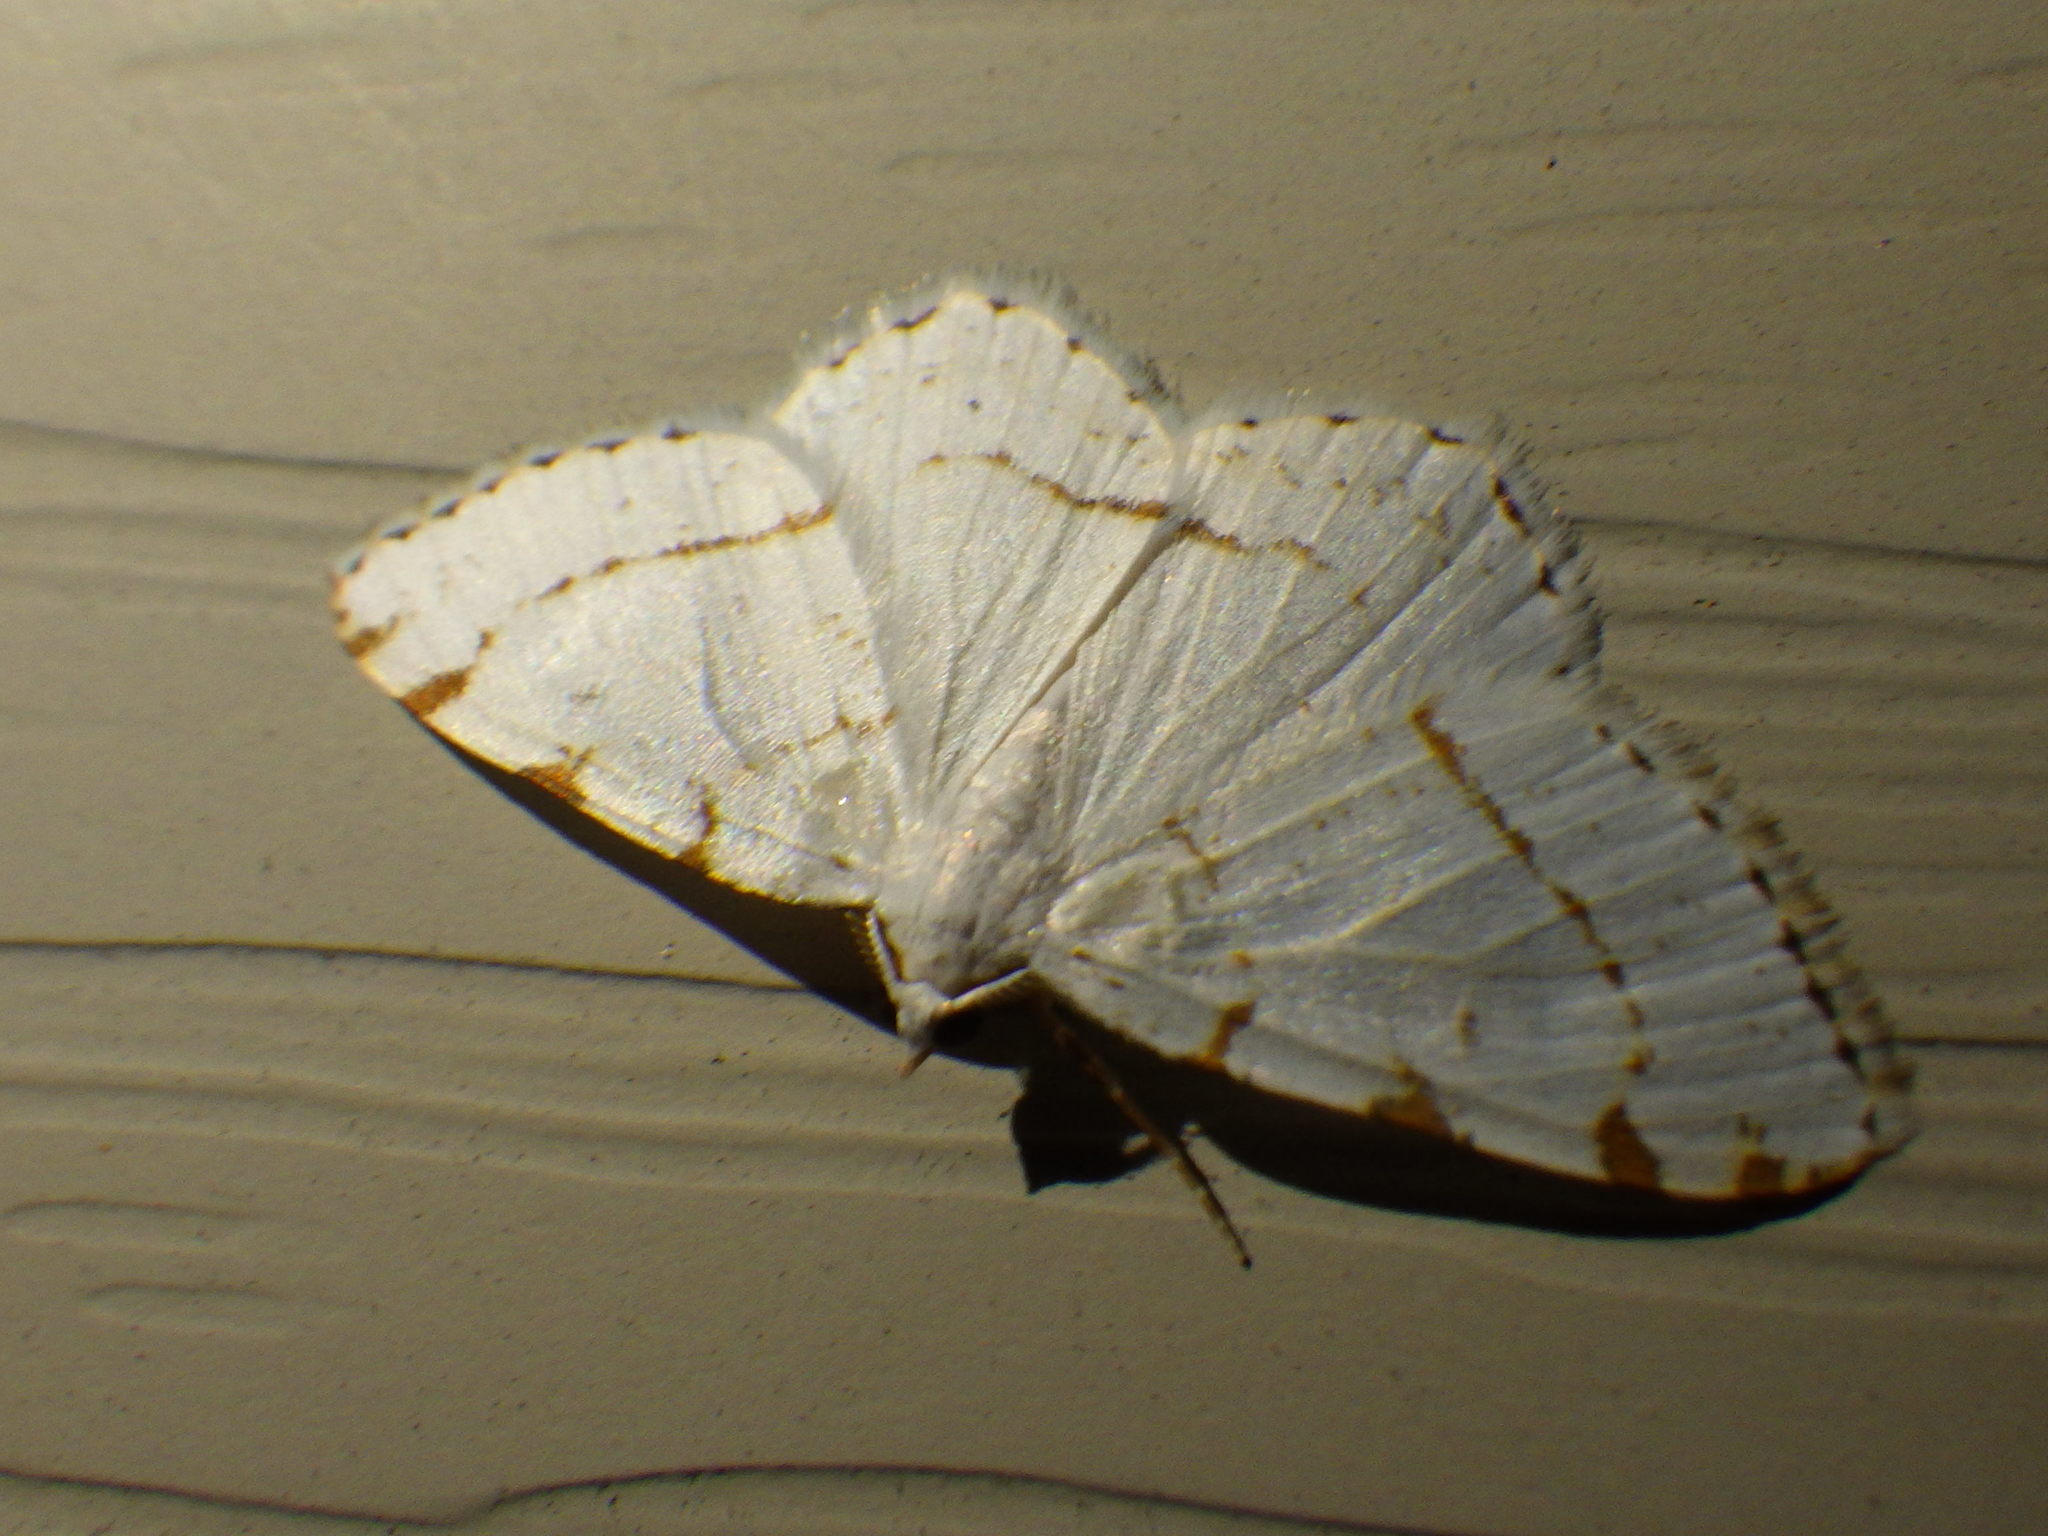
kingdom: Animalia
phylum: Arthropoda
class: Insecta
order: Lepidoptera
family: Geometridae
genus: Macaria
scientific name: Macaria pustularia
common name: Lesser maple spanworm moth
